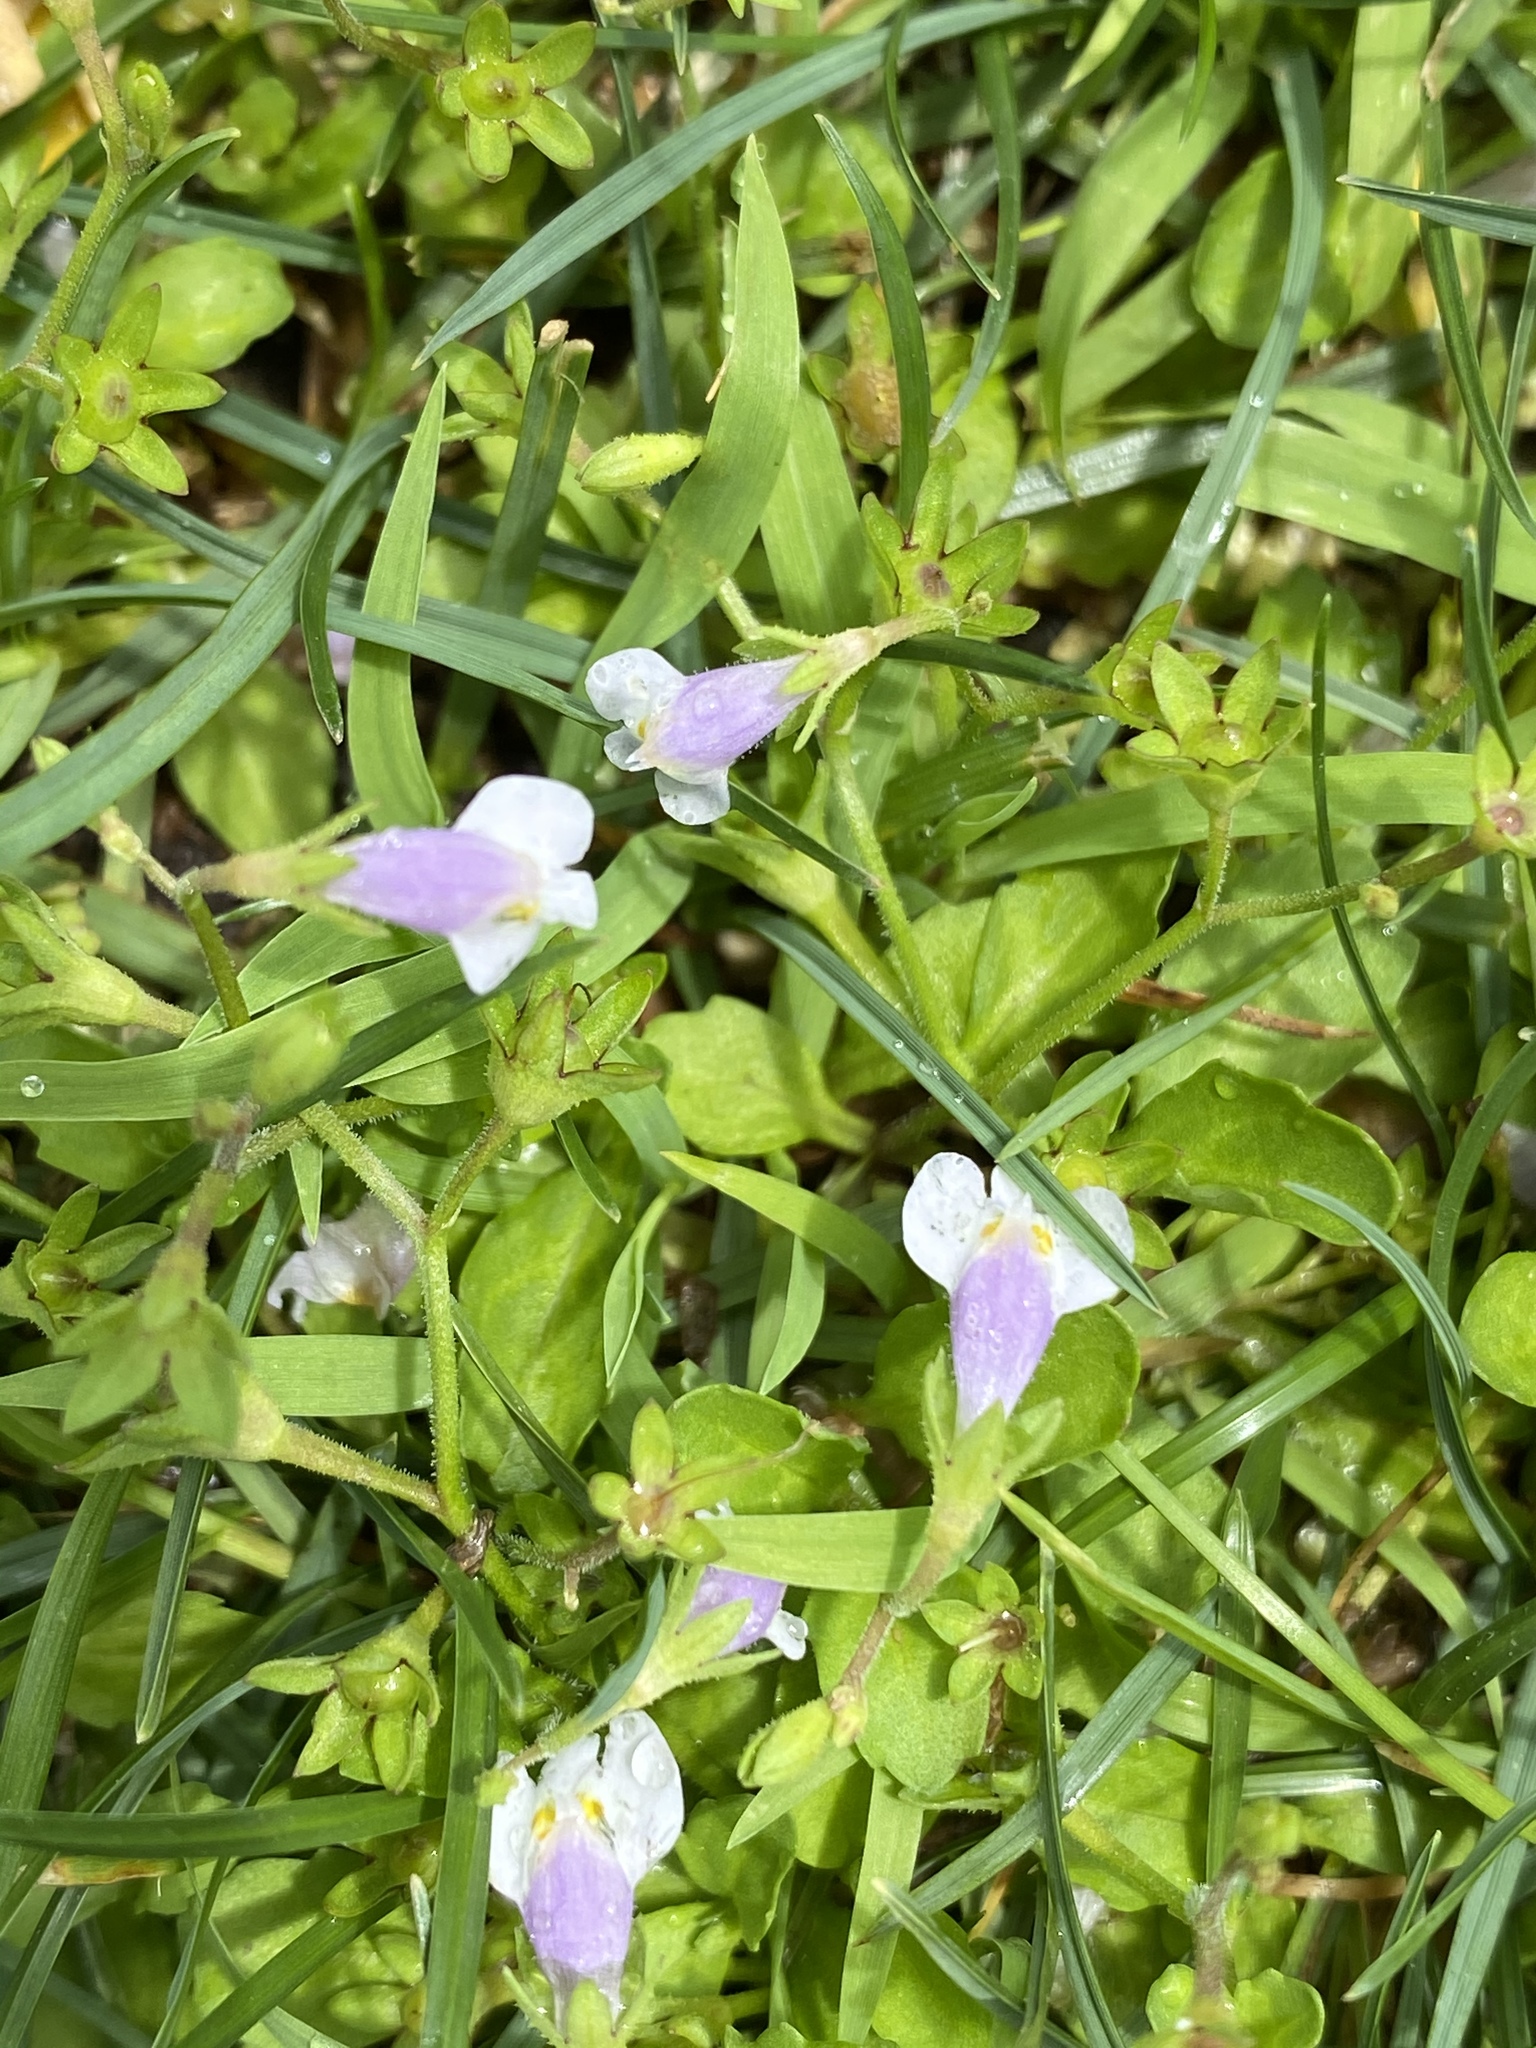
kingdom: Plantae
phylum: Tracheophyta
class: Magnoliopsida
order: Lamiales
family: Mazaceae
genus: Mazus
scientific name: Mazus pumilus
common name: Japanese mazus
